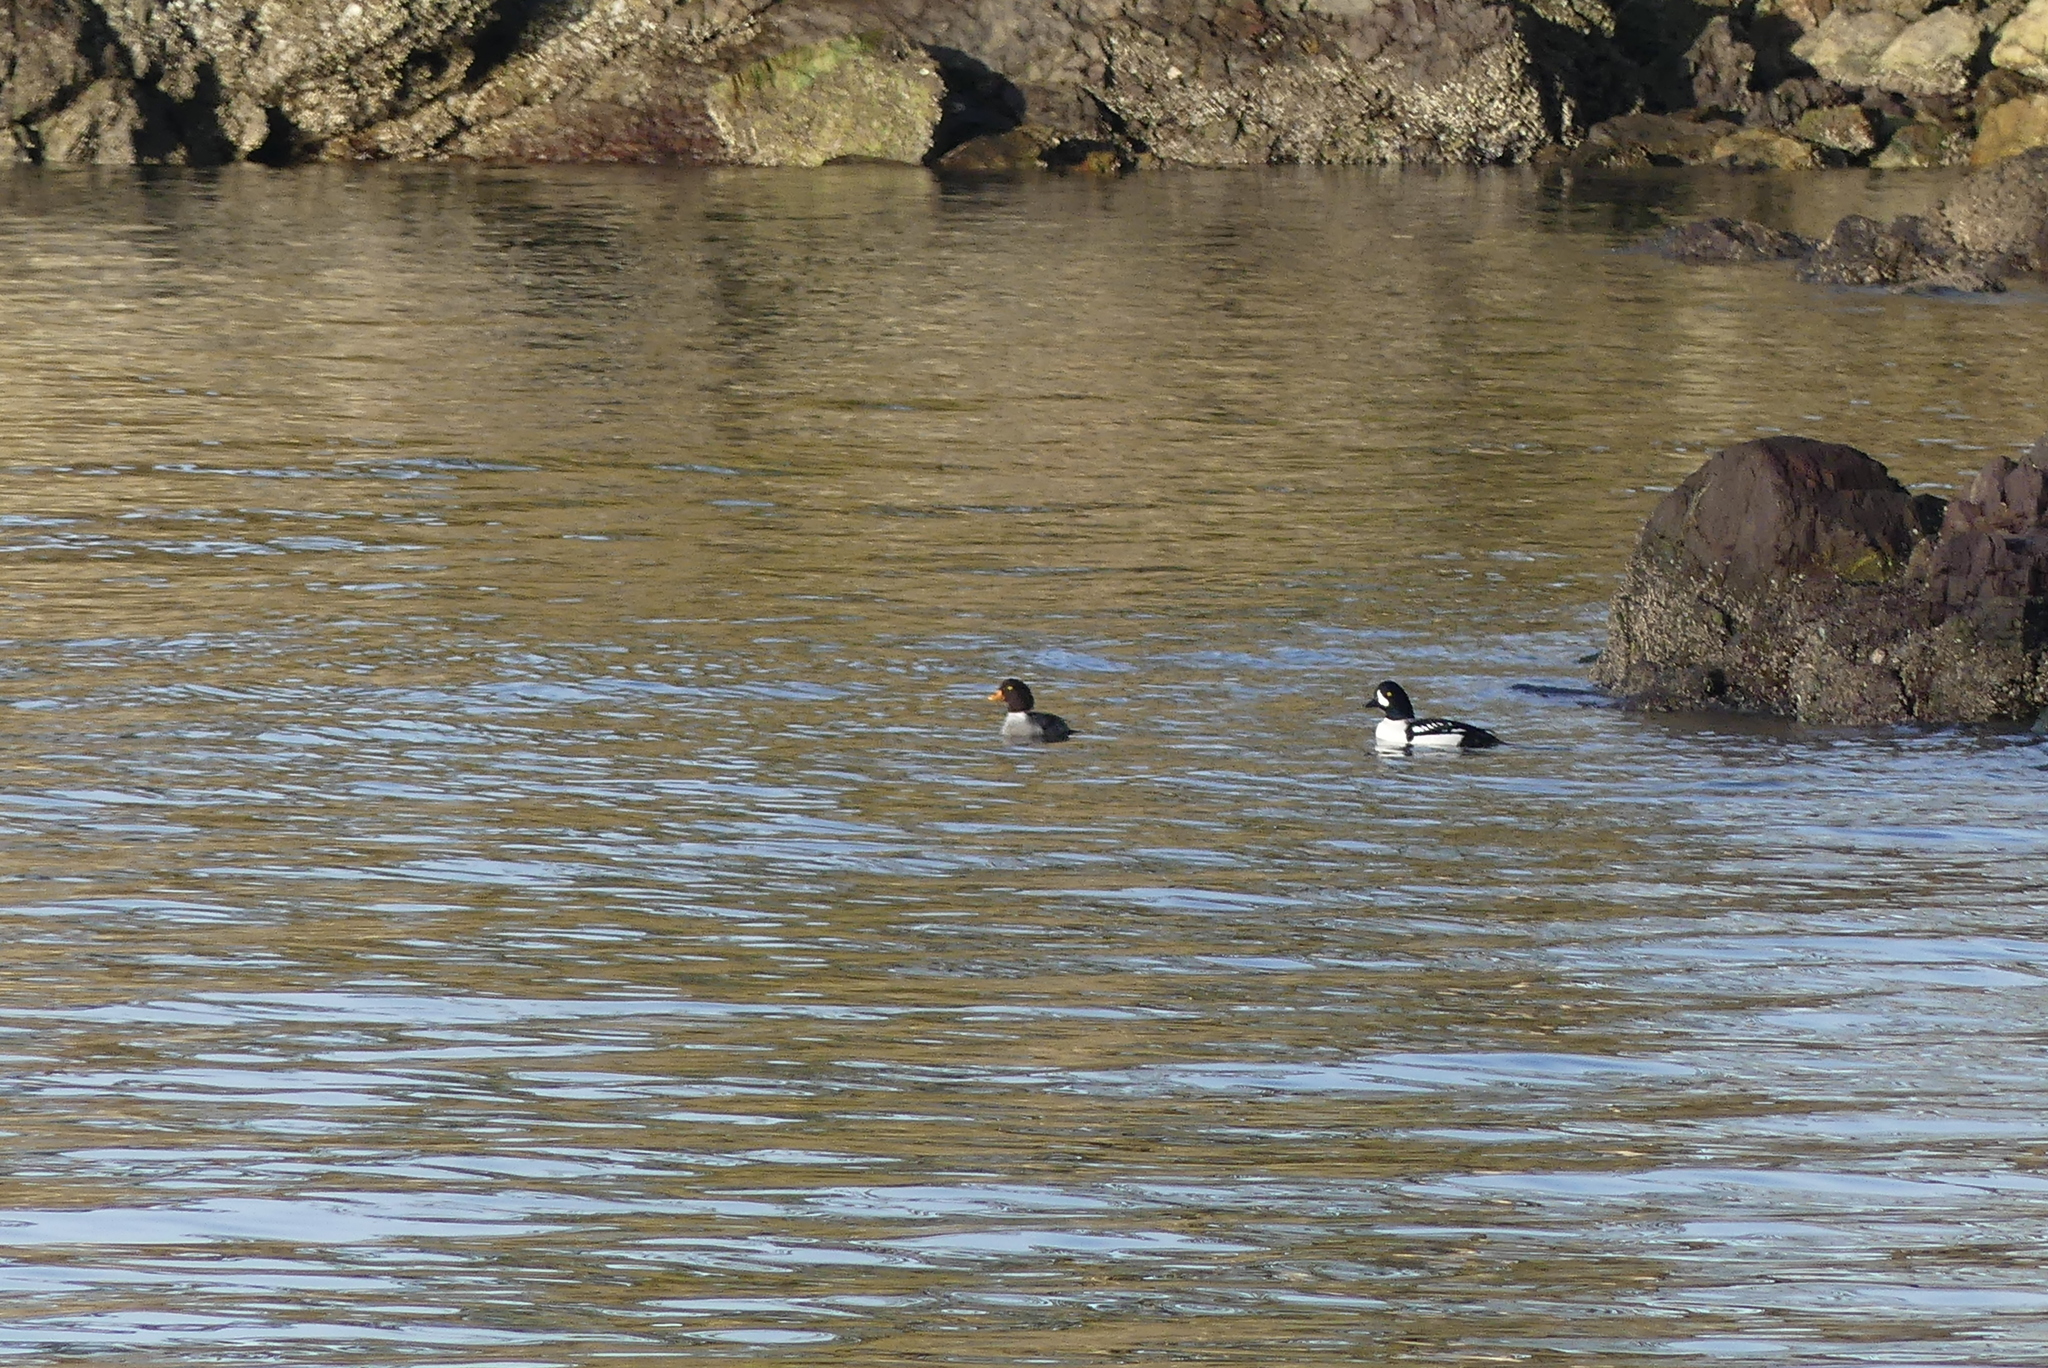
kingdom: Animalia
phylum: Chordata
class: Aves
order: Anseriformes
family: Anatidae
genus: Bucephala
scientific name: Bucephala islandica
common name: Barrow's goldeneye
